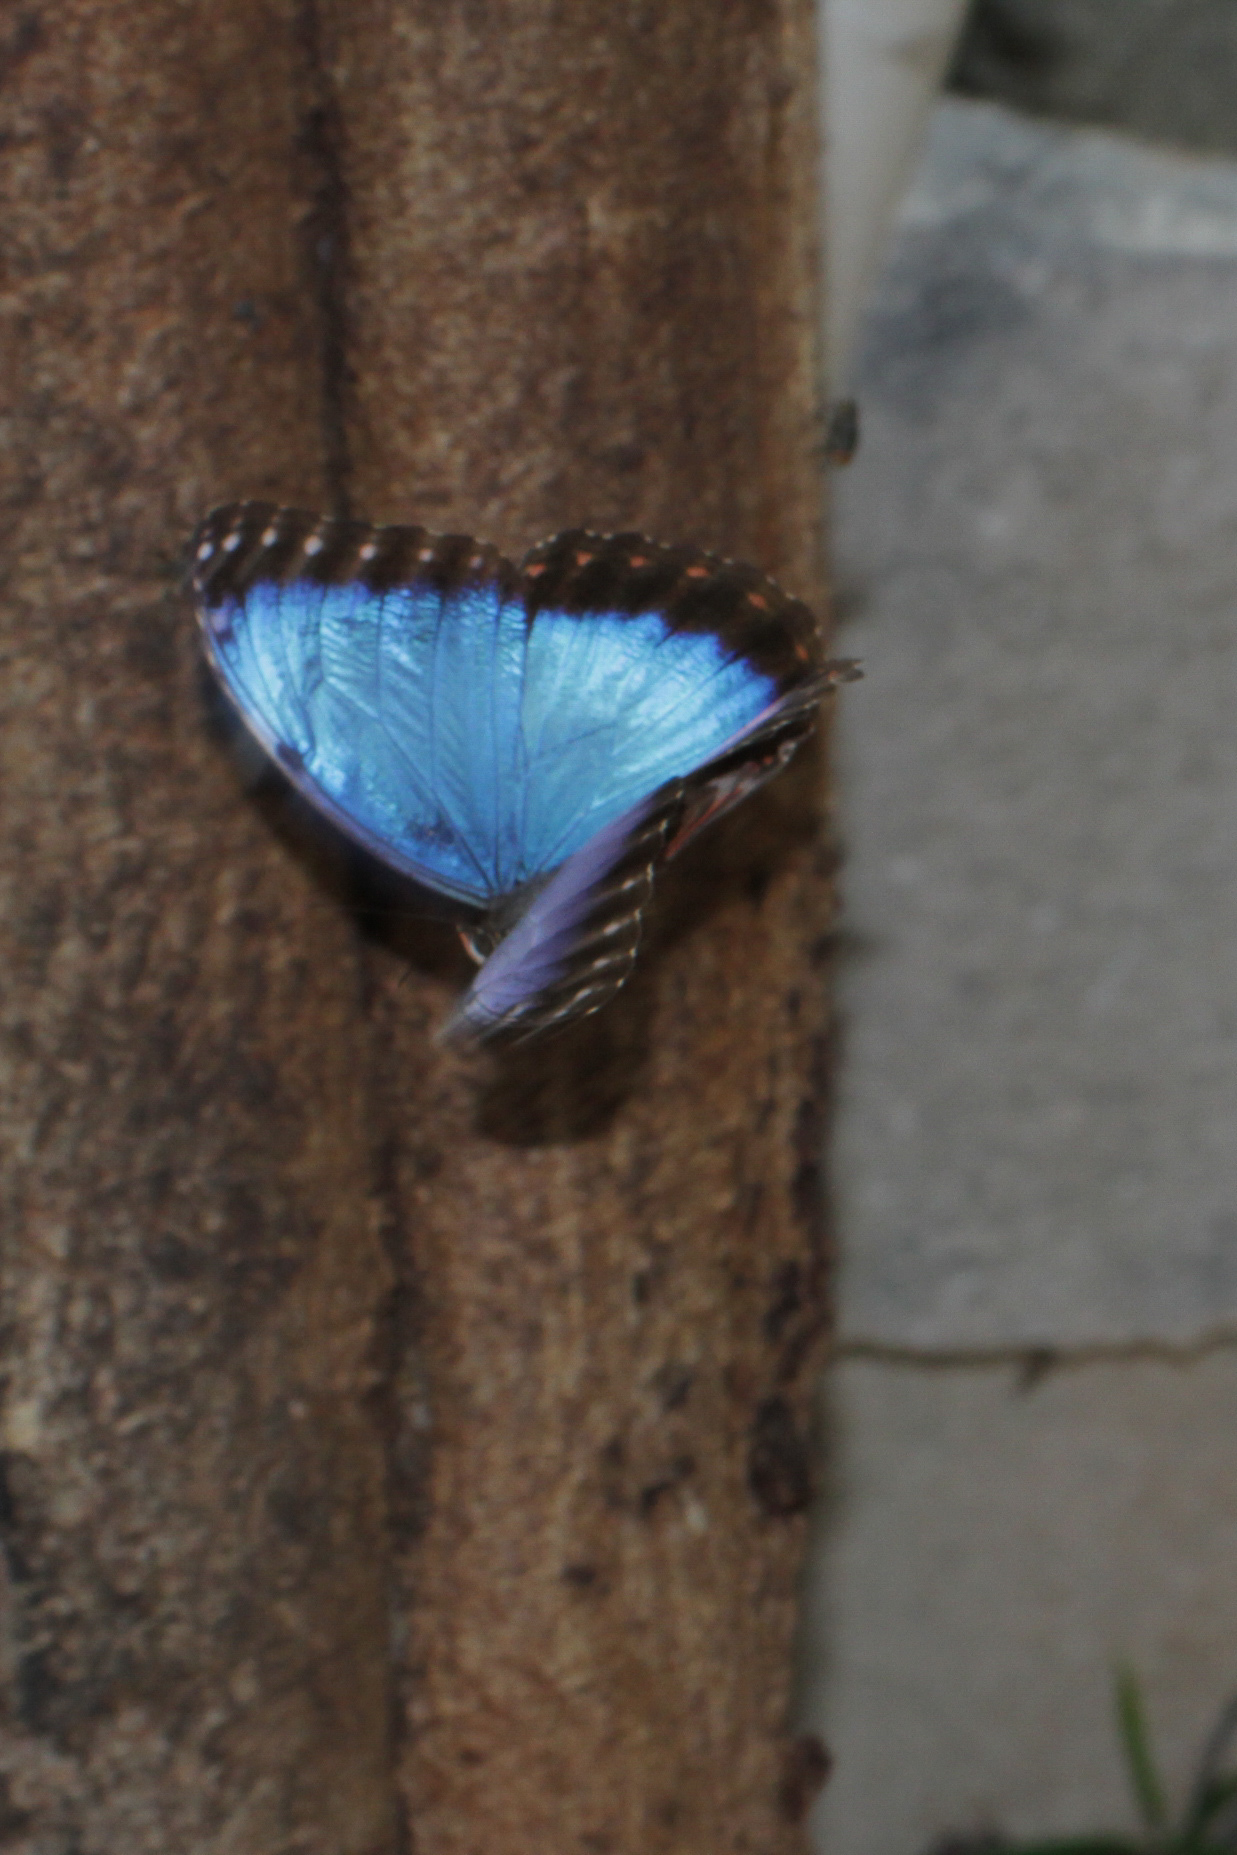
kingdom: Animalia
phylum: Arthropoda
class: Insecta
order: Lepidoptera
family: Nymphalidae
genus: Morpho
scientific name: Morpho helenor
